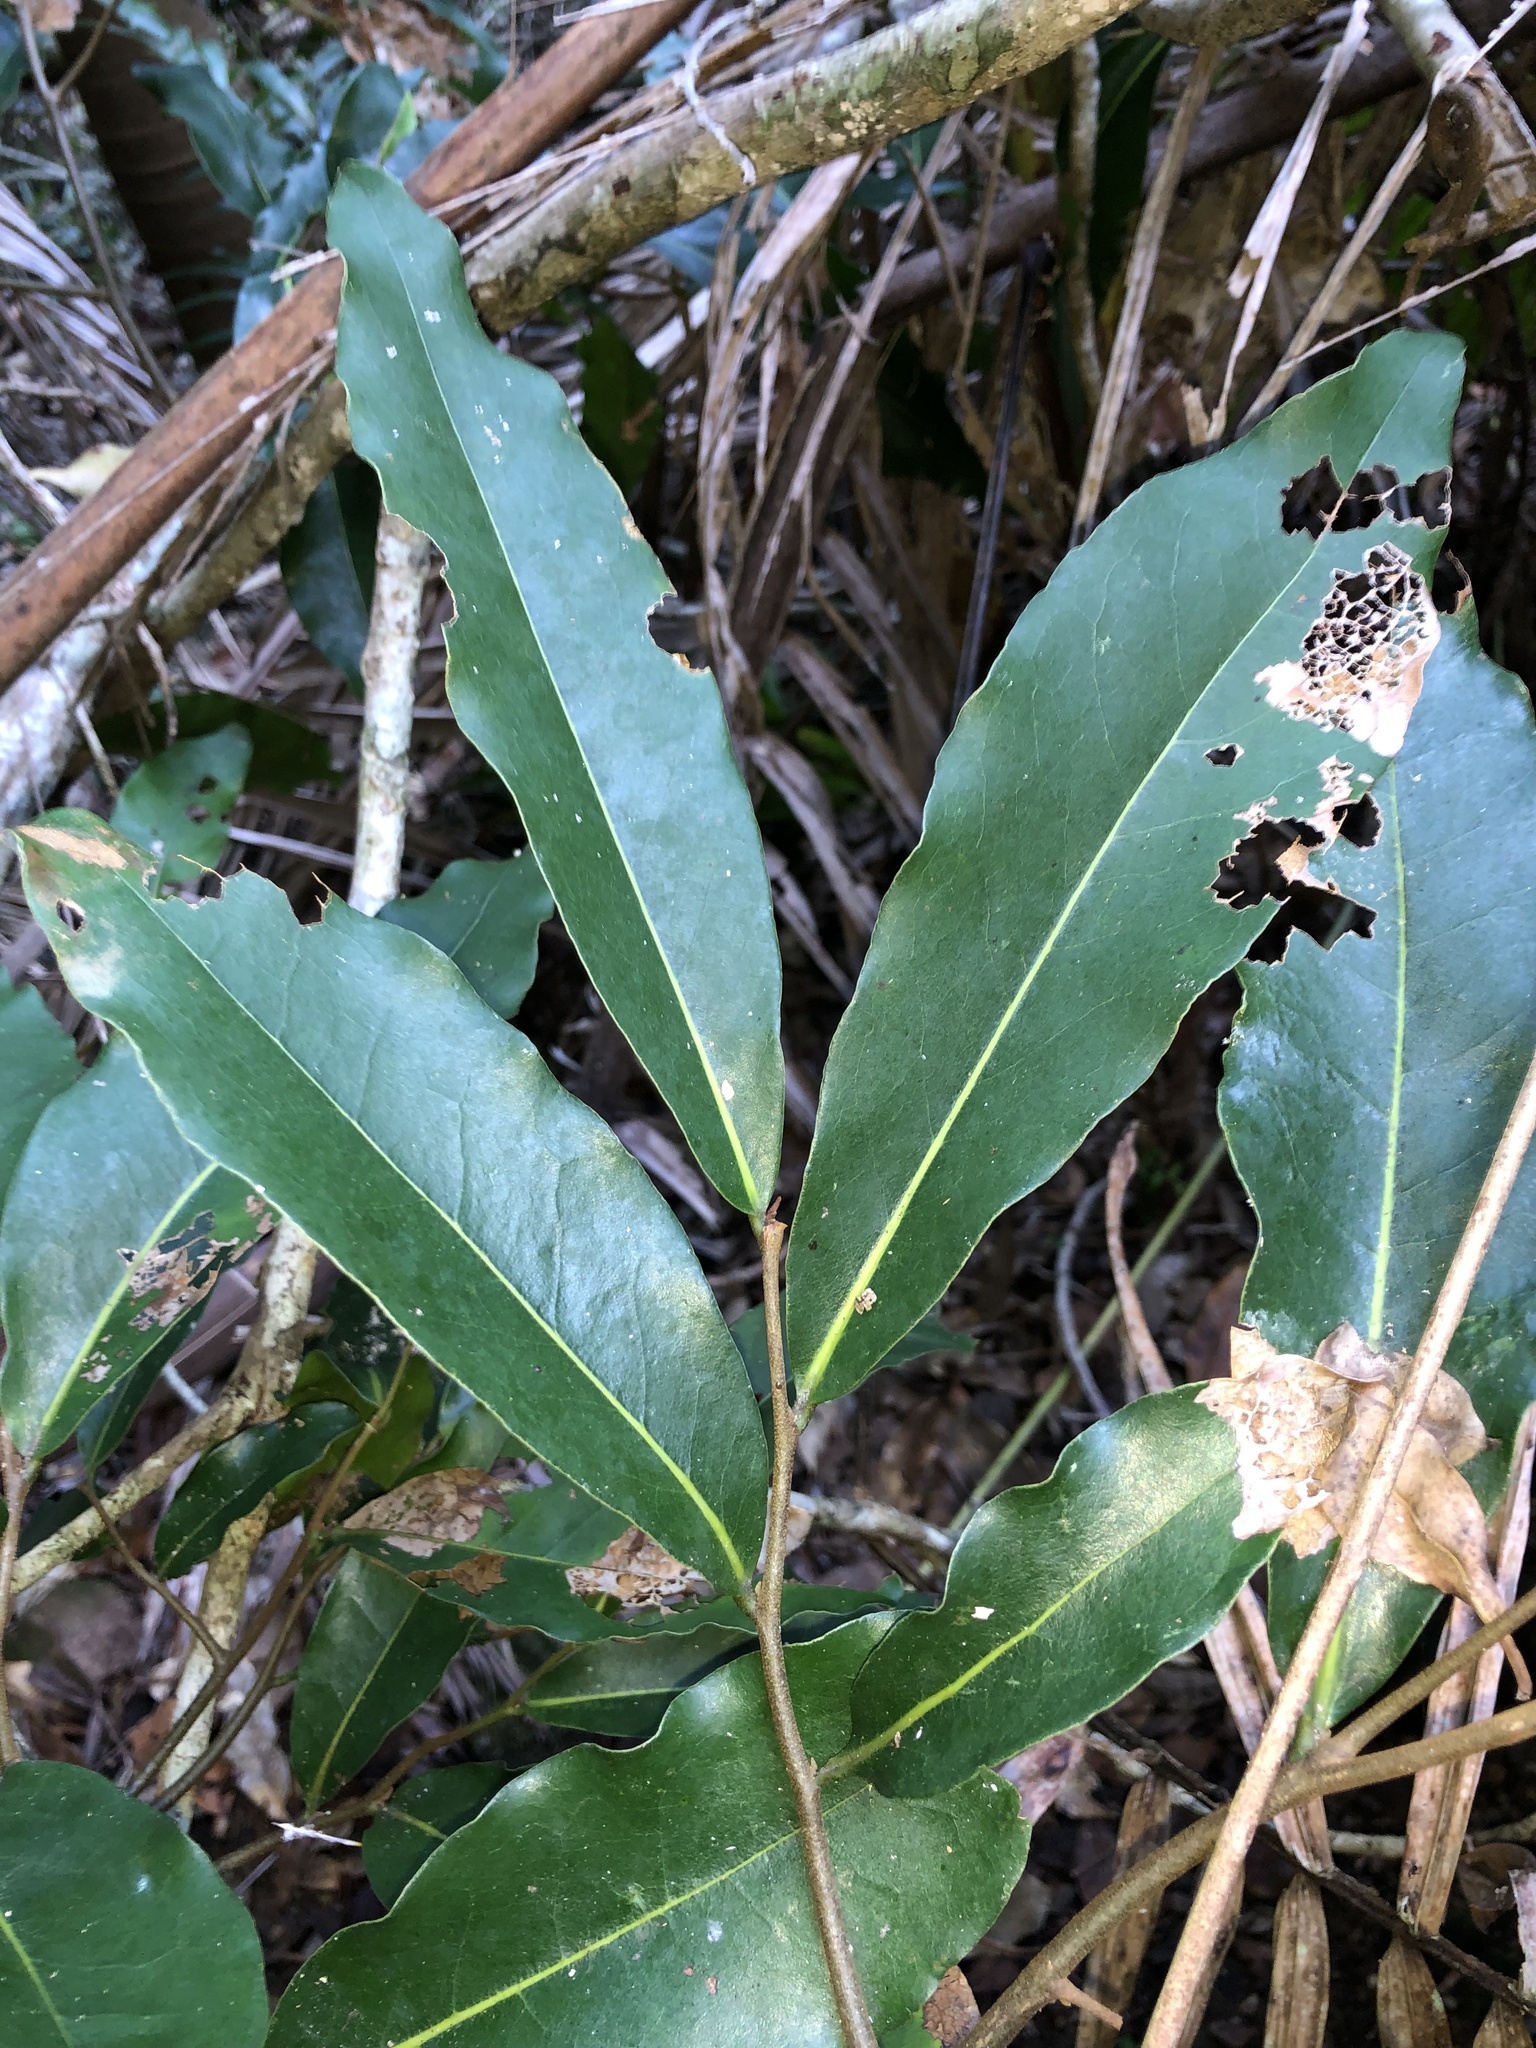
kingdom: Plantae
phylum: Tracheophyta
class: Magnoliopsida
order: Magnoliales
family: Annonaceae
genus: Uvaria
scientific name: Uvaria leichhardtii
